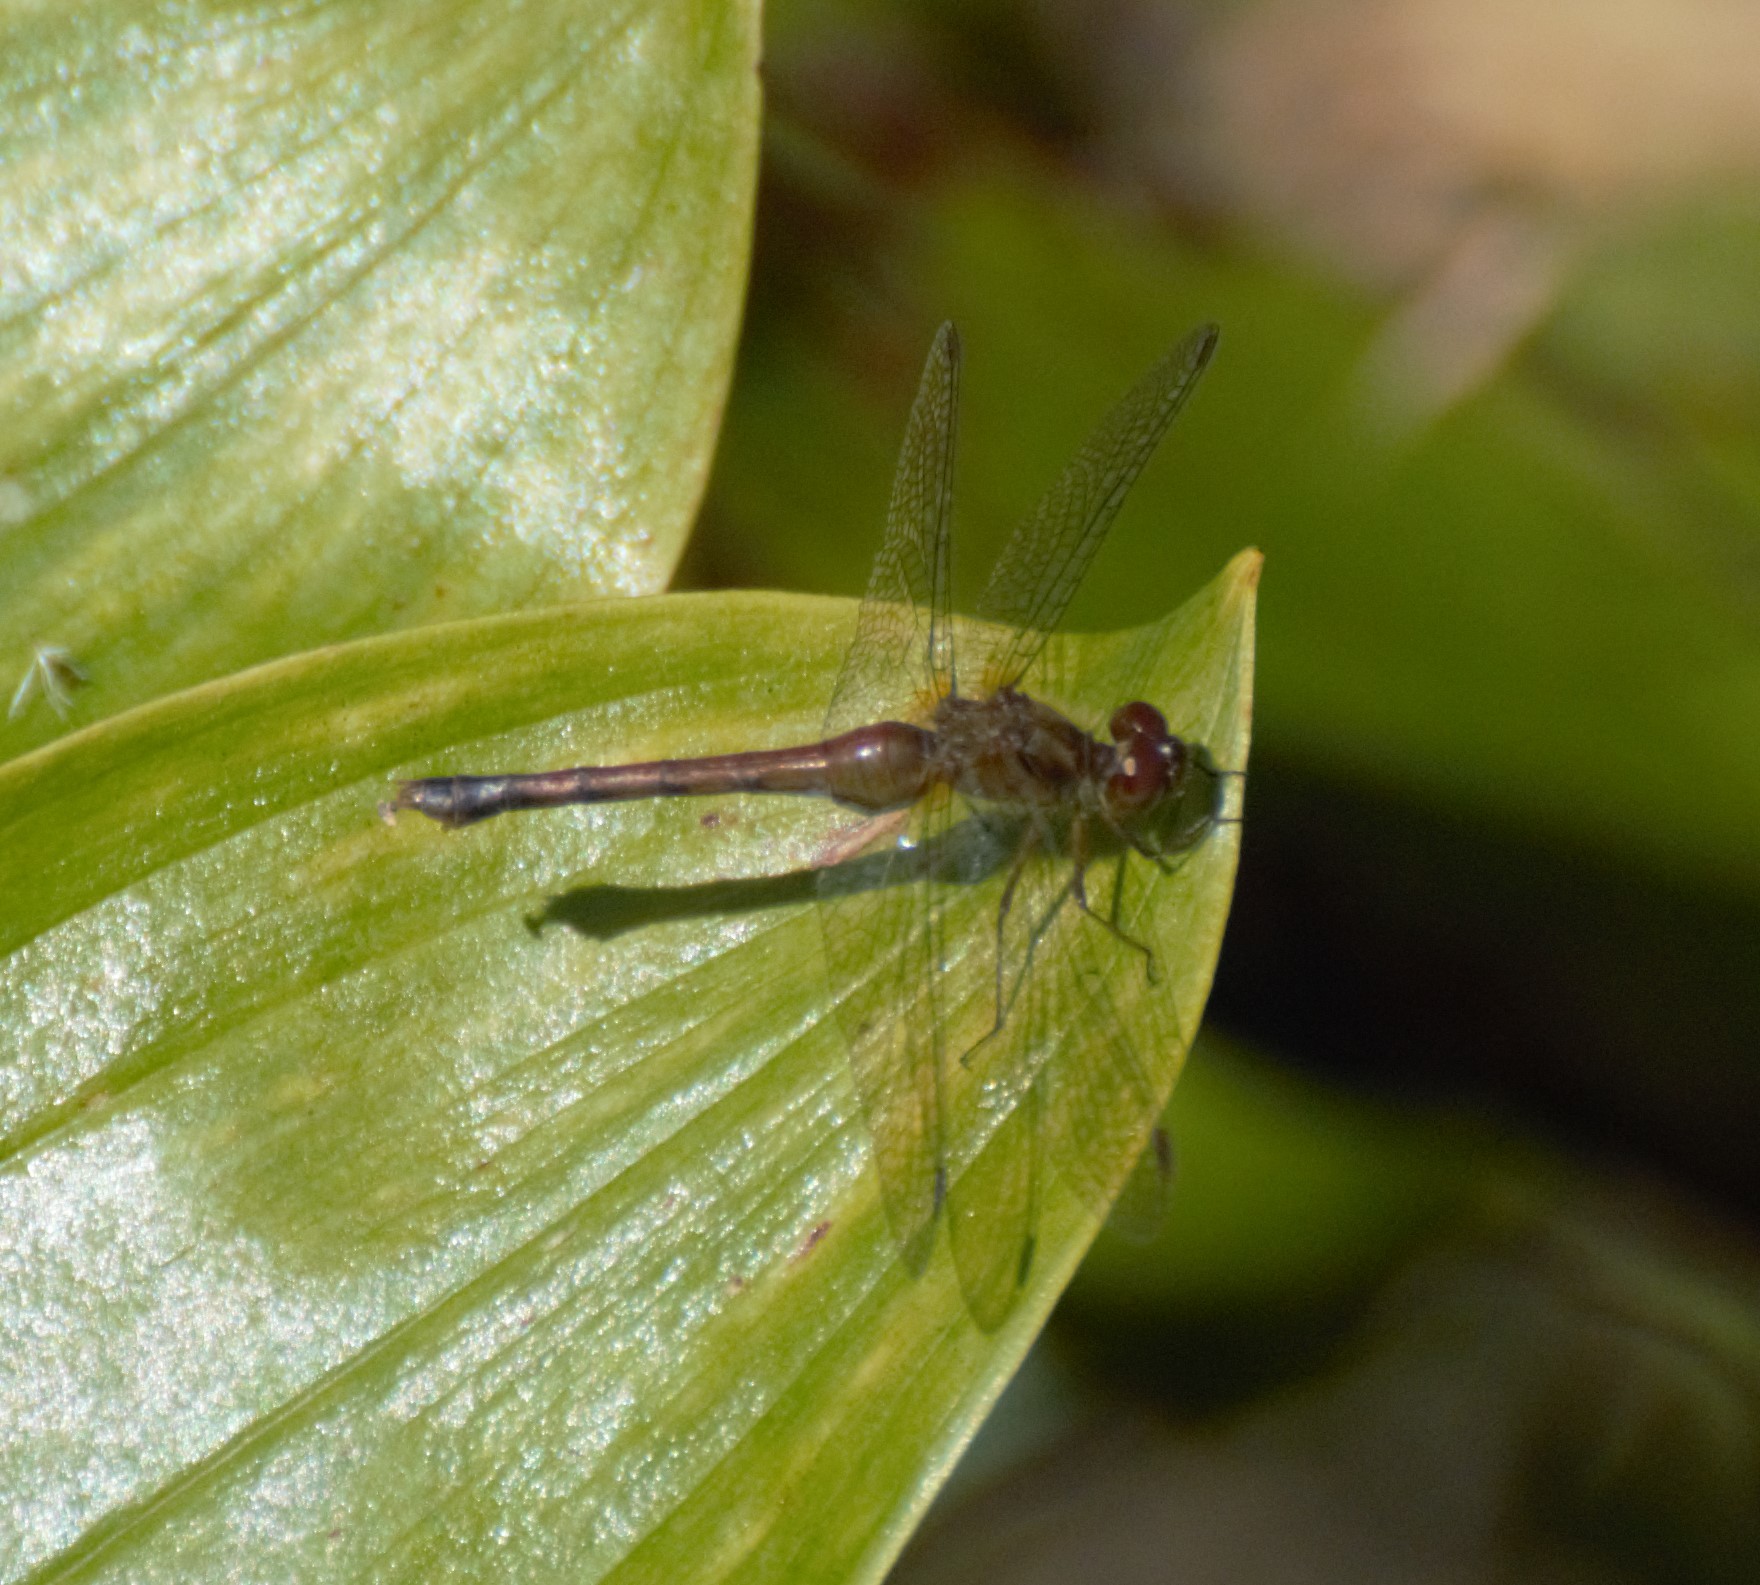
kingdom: Animalia
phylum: Arthropoda
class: Insecta
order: Odonata
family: Libellulidae
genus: Sympetrum
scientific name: Sympetrum vicinum
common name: Autumn meadowhawk
